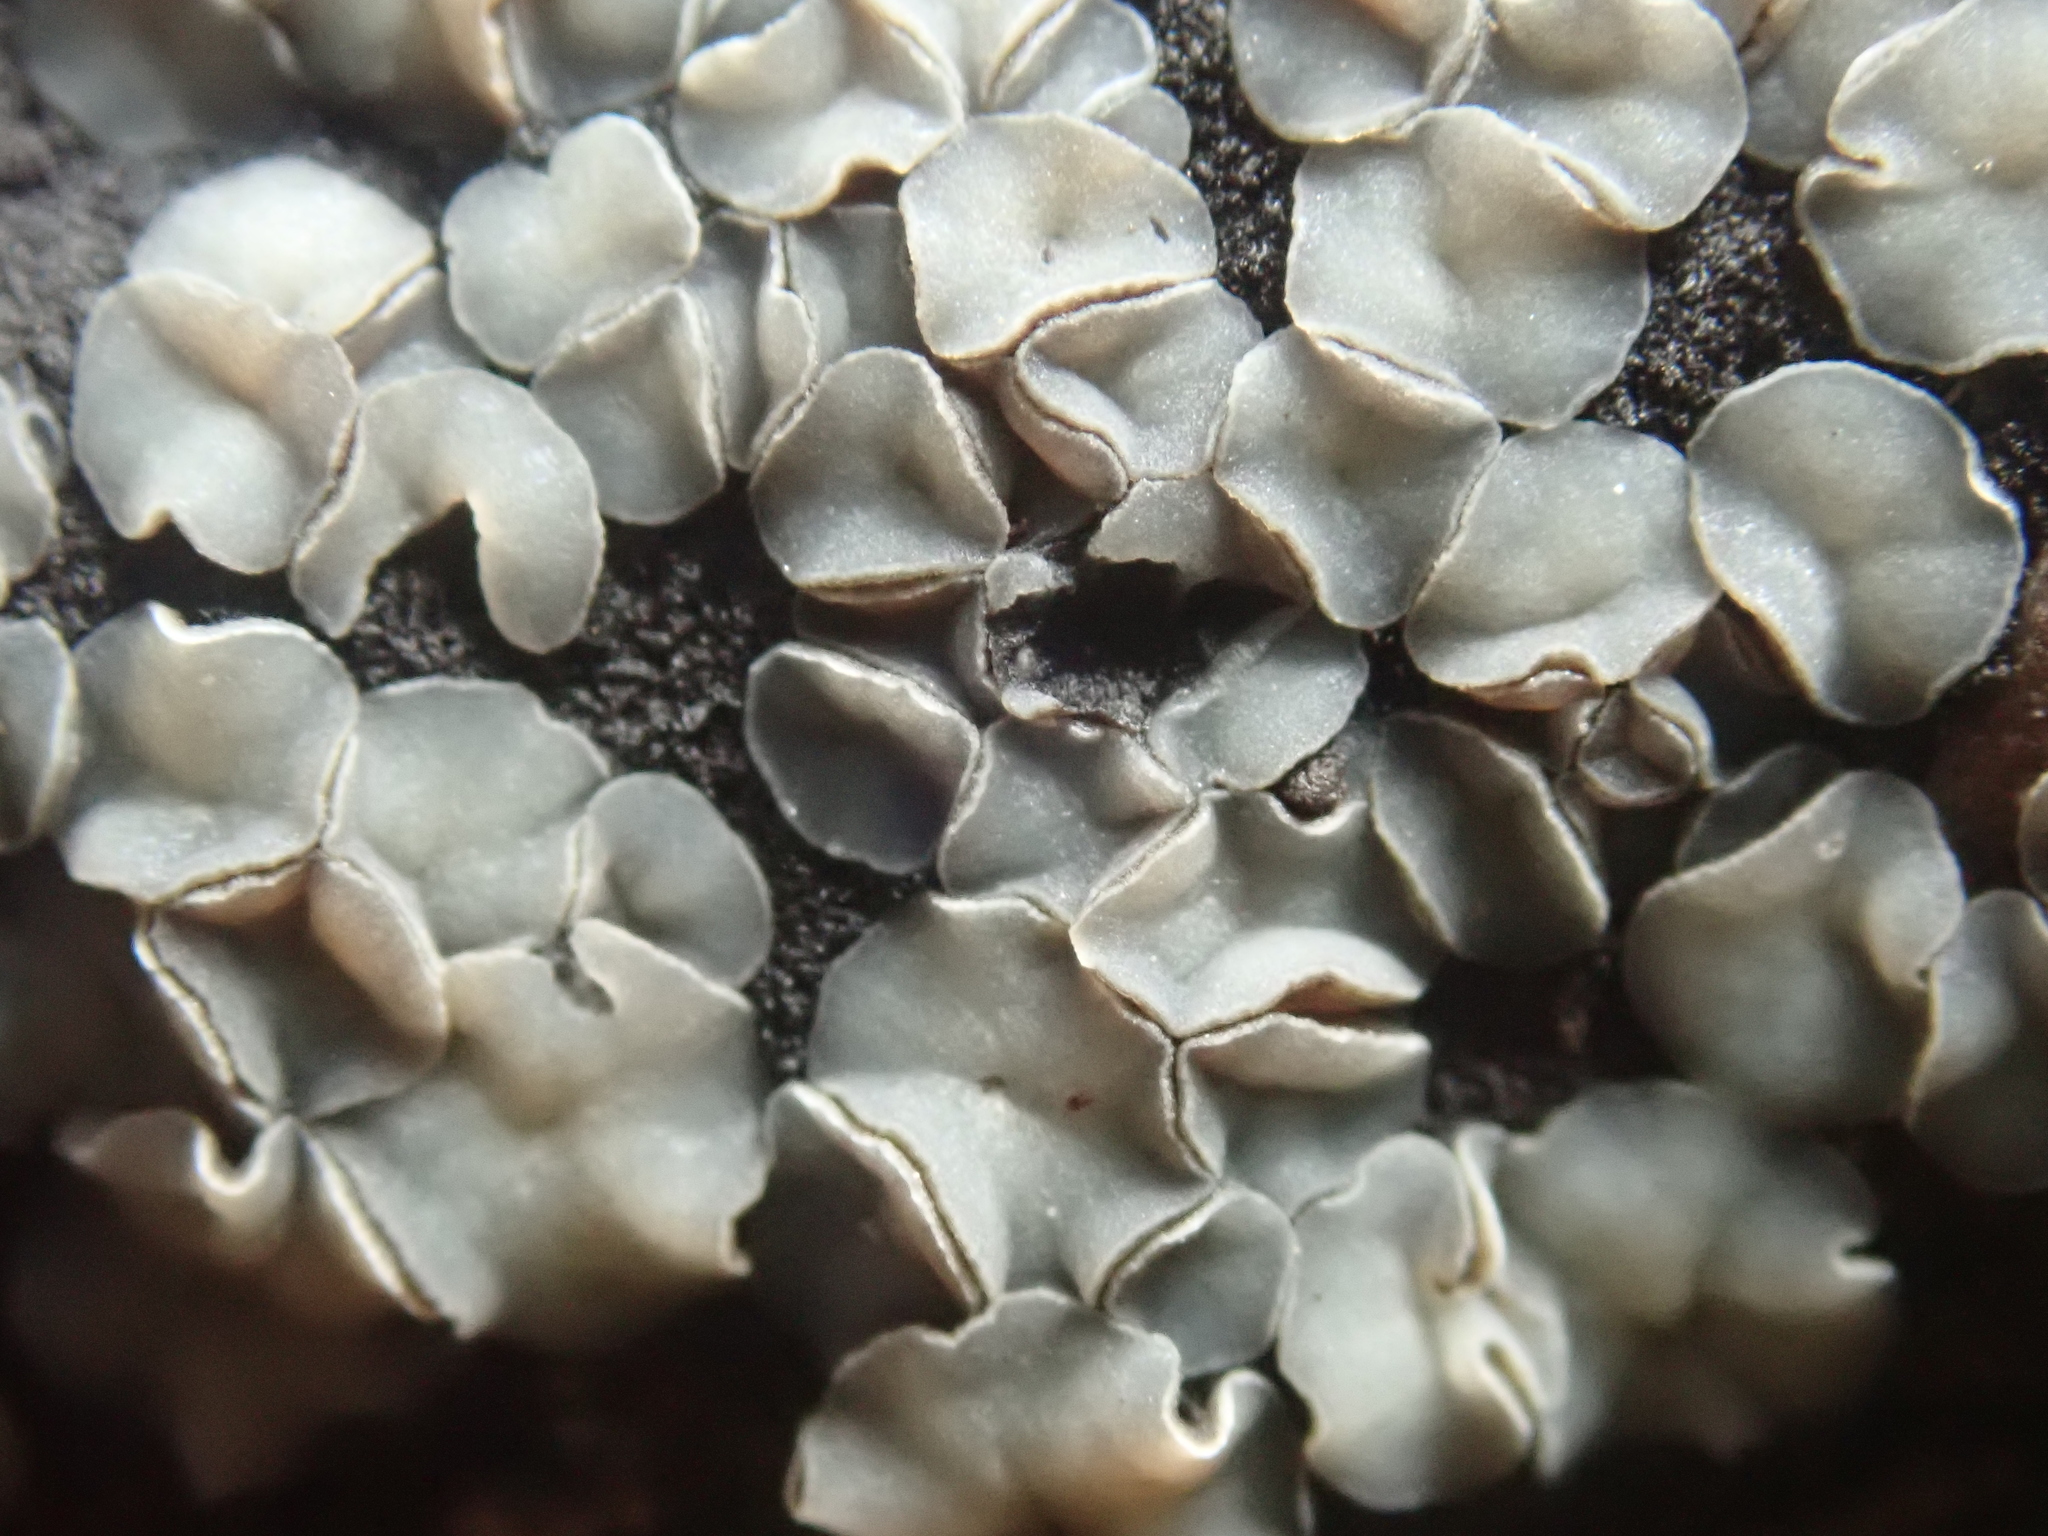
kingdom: Fungi
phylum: Ascomycota
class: Leotiomycetes
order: Helotiales
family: Mollisiaceae
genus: Mollisia
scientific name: Mollisia cinerea
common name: Common grey disco
